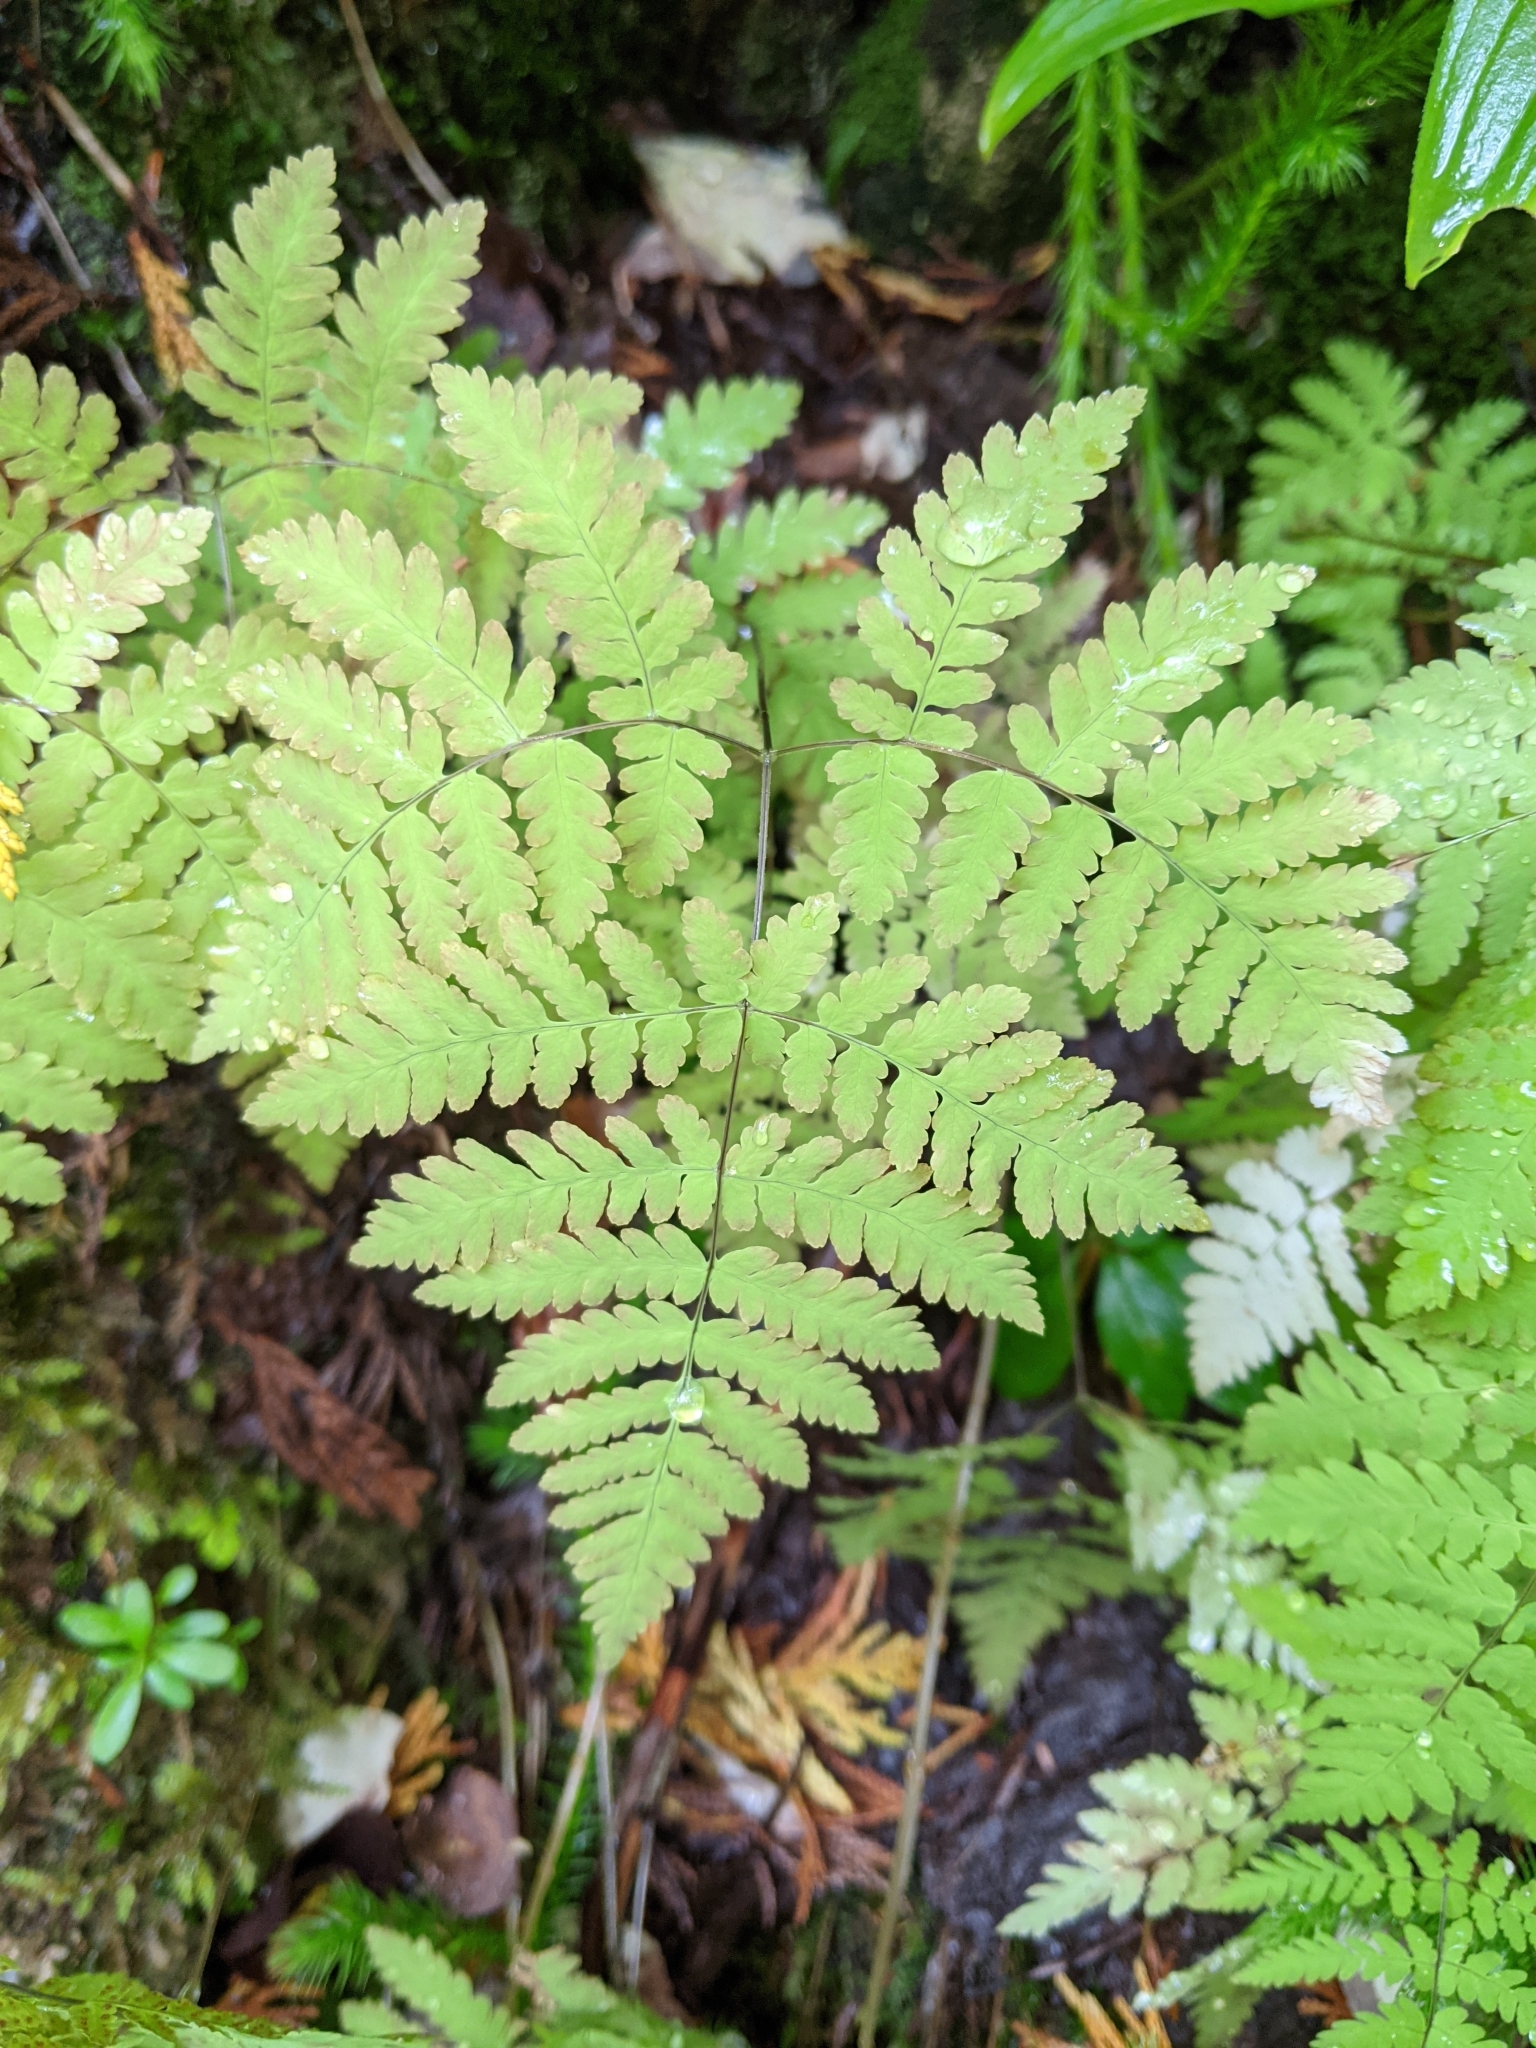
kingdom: Plantae
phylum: Tracheophyta
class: Polypodiopsida
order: Polypodiales
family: Cystopteridaceae
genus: Gymnocarpium
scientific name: Gymnocarpium disjunctum
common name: Western oak fern
